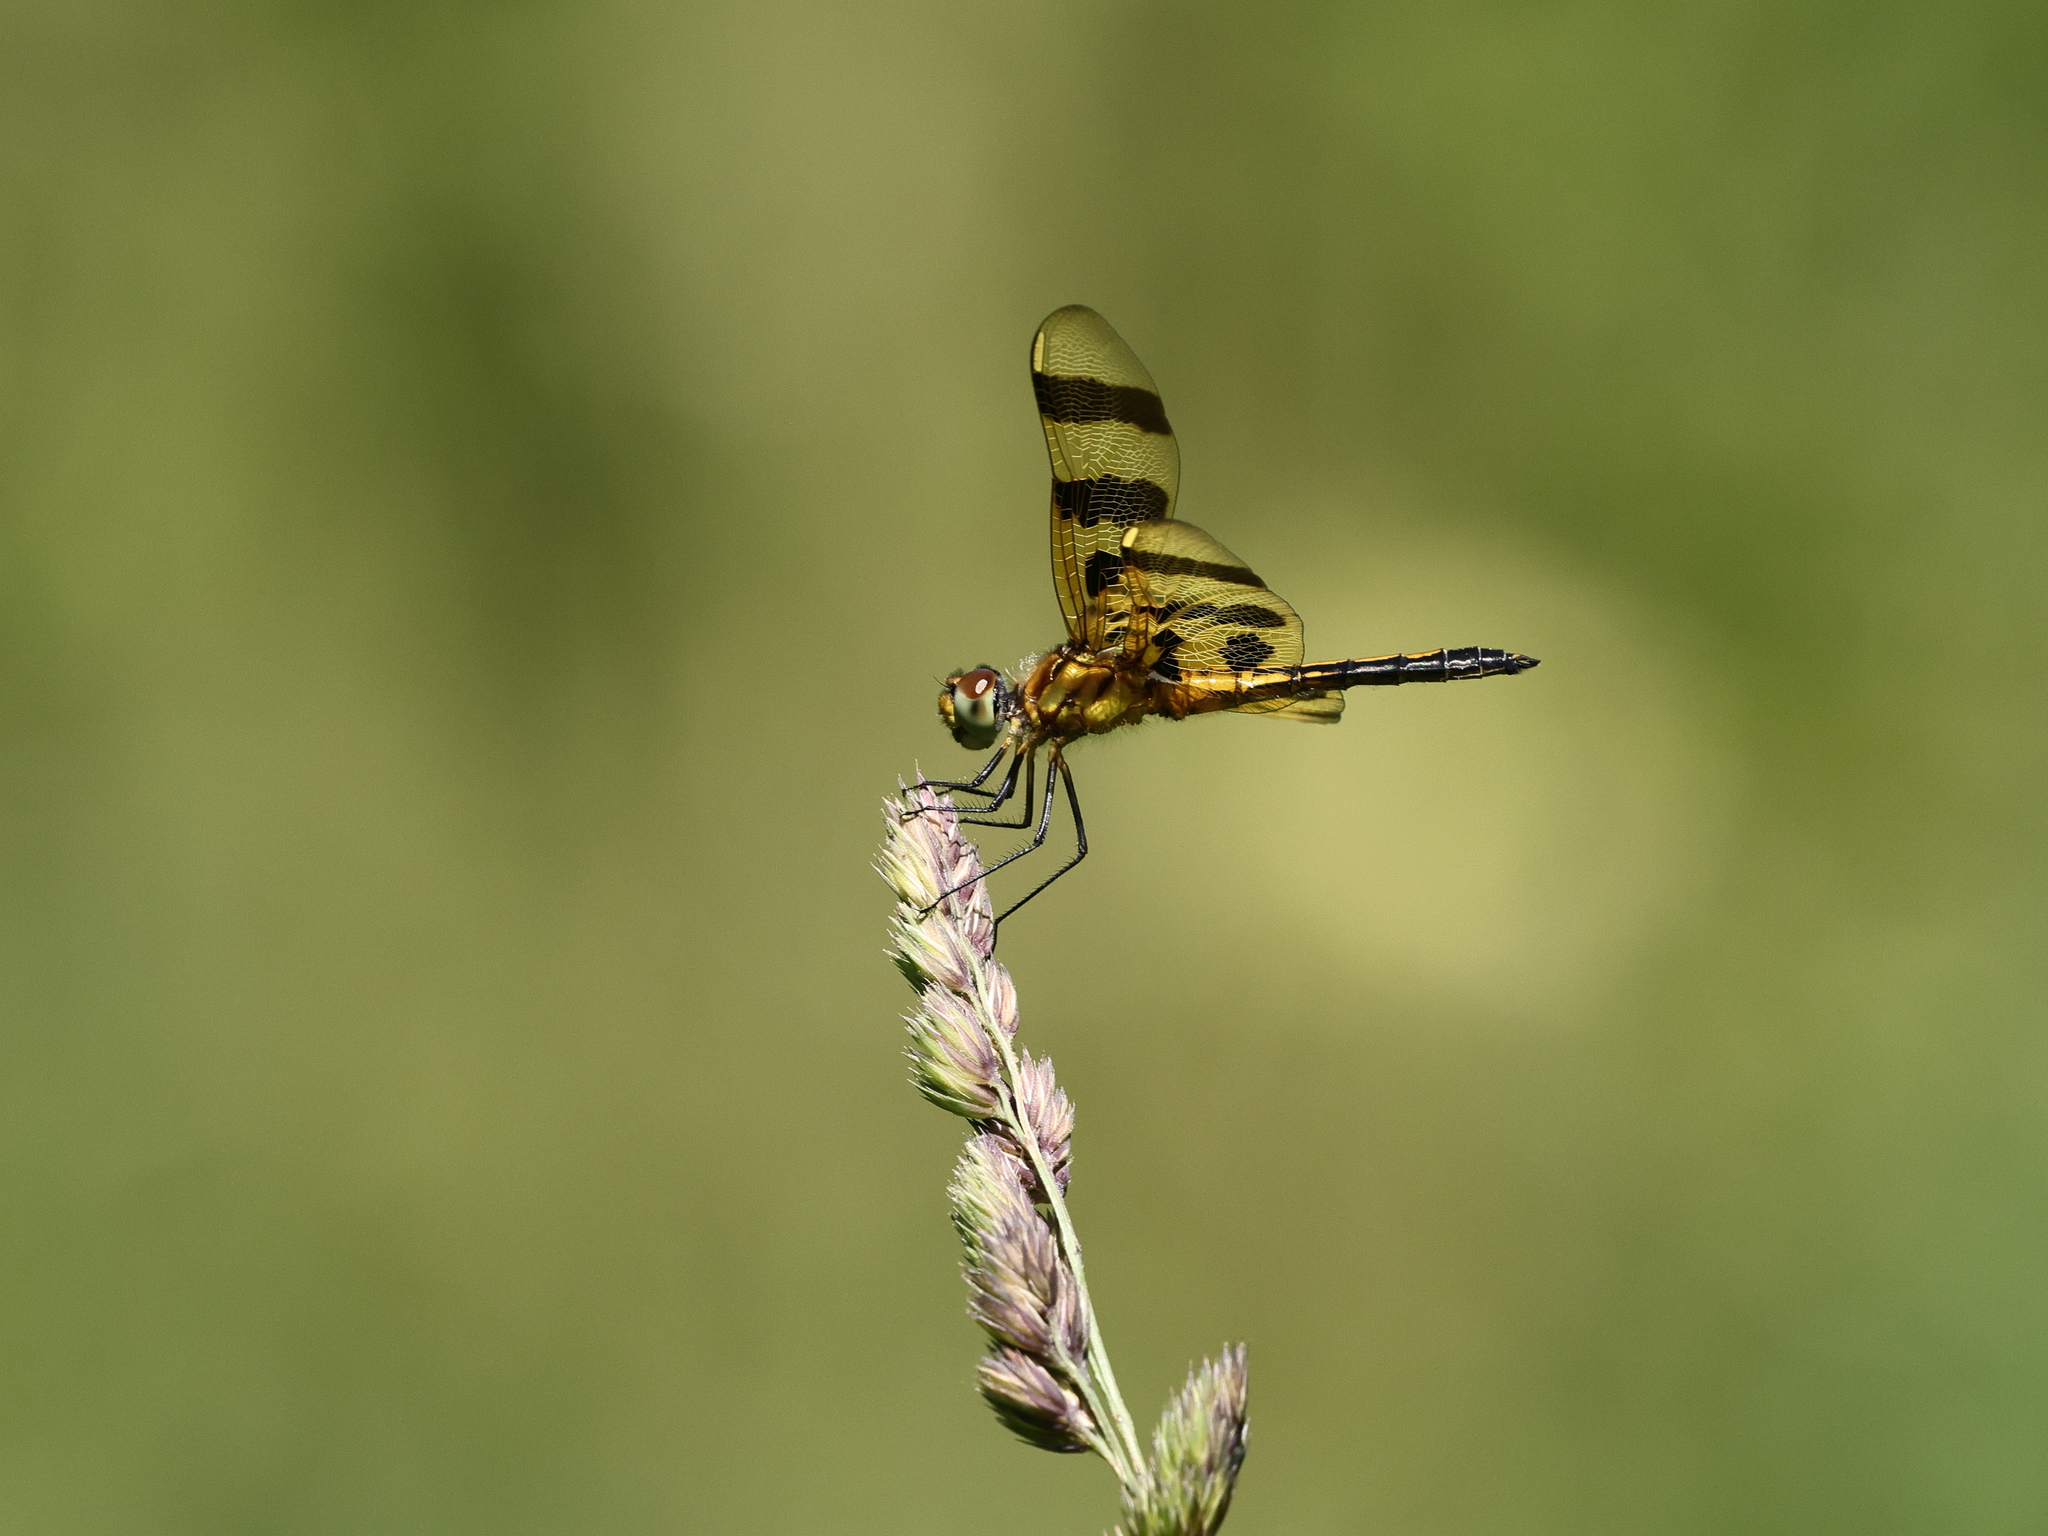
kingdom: Animalia
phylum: Arthropoda
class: Insecta
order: Odonata
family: Libellulidae
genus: Celithemis
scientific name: Celithemis eponina
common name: Halloween pennant
